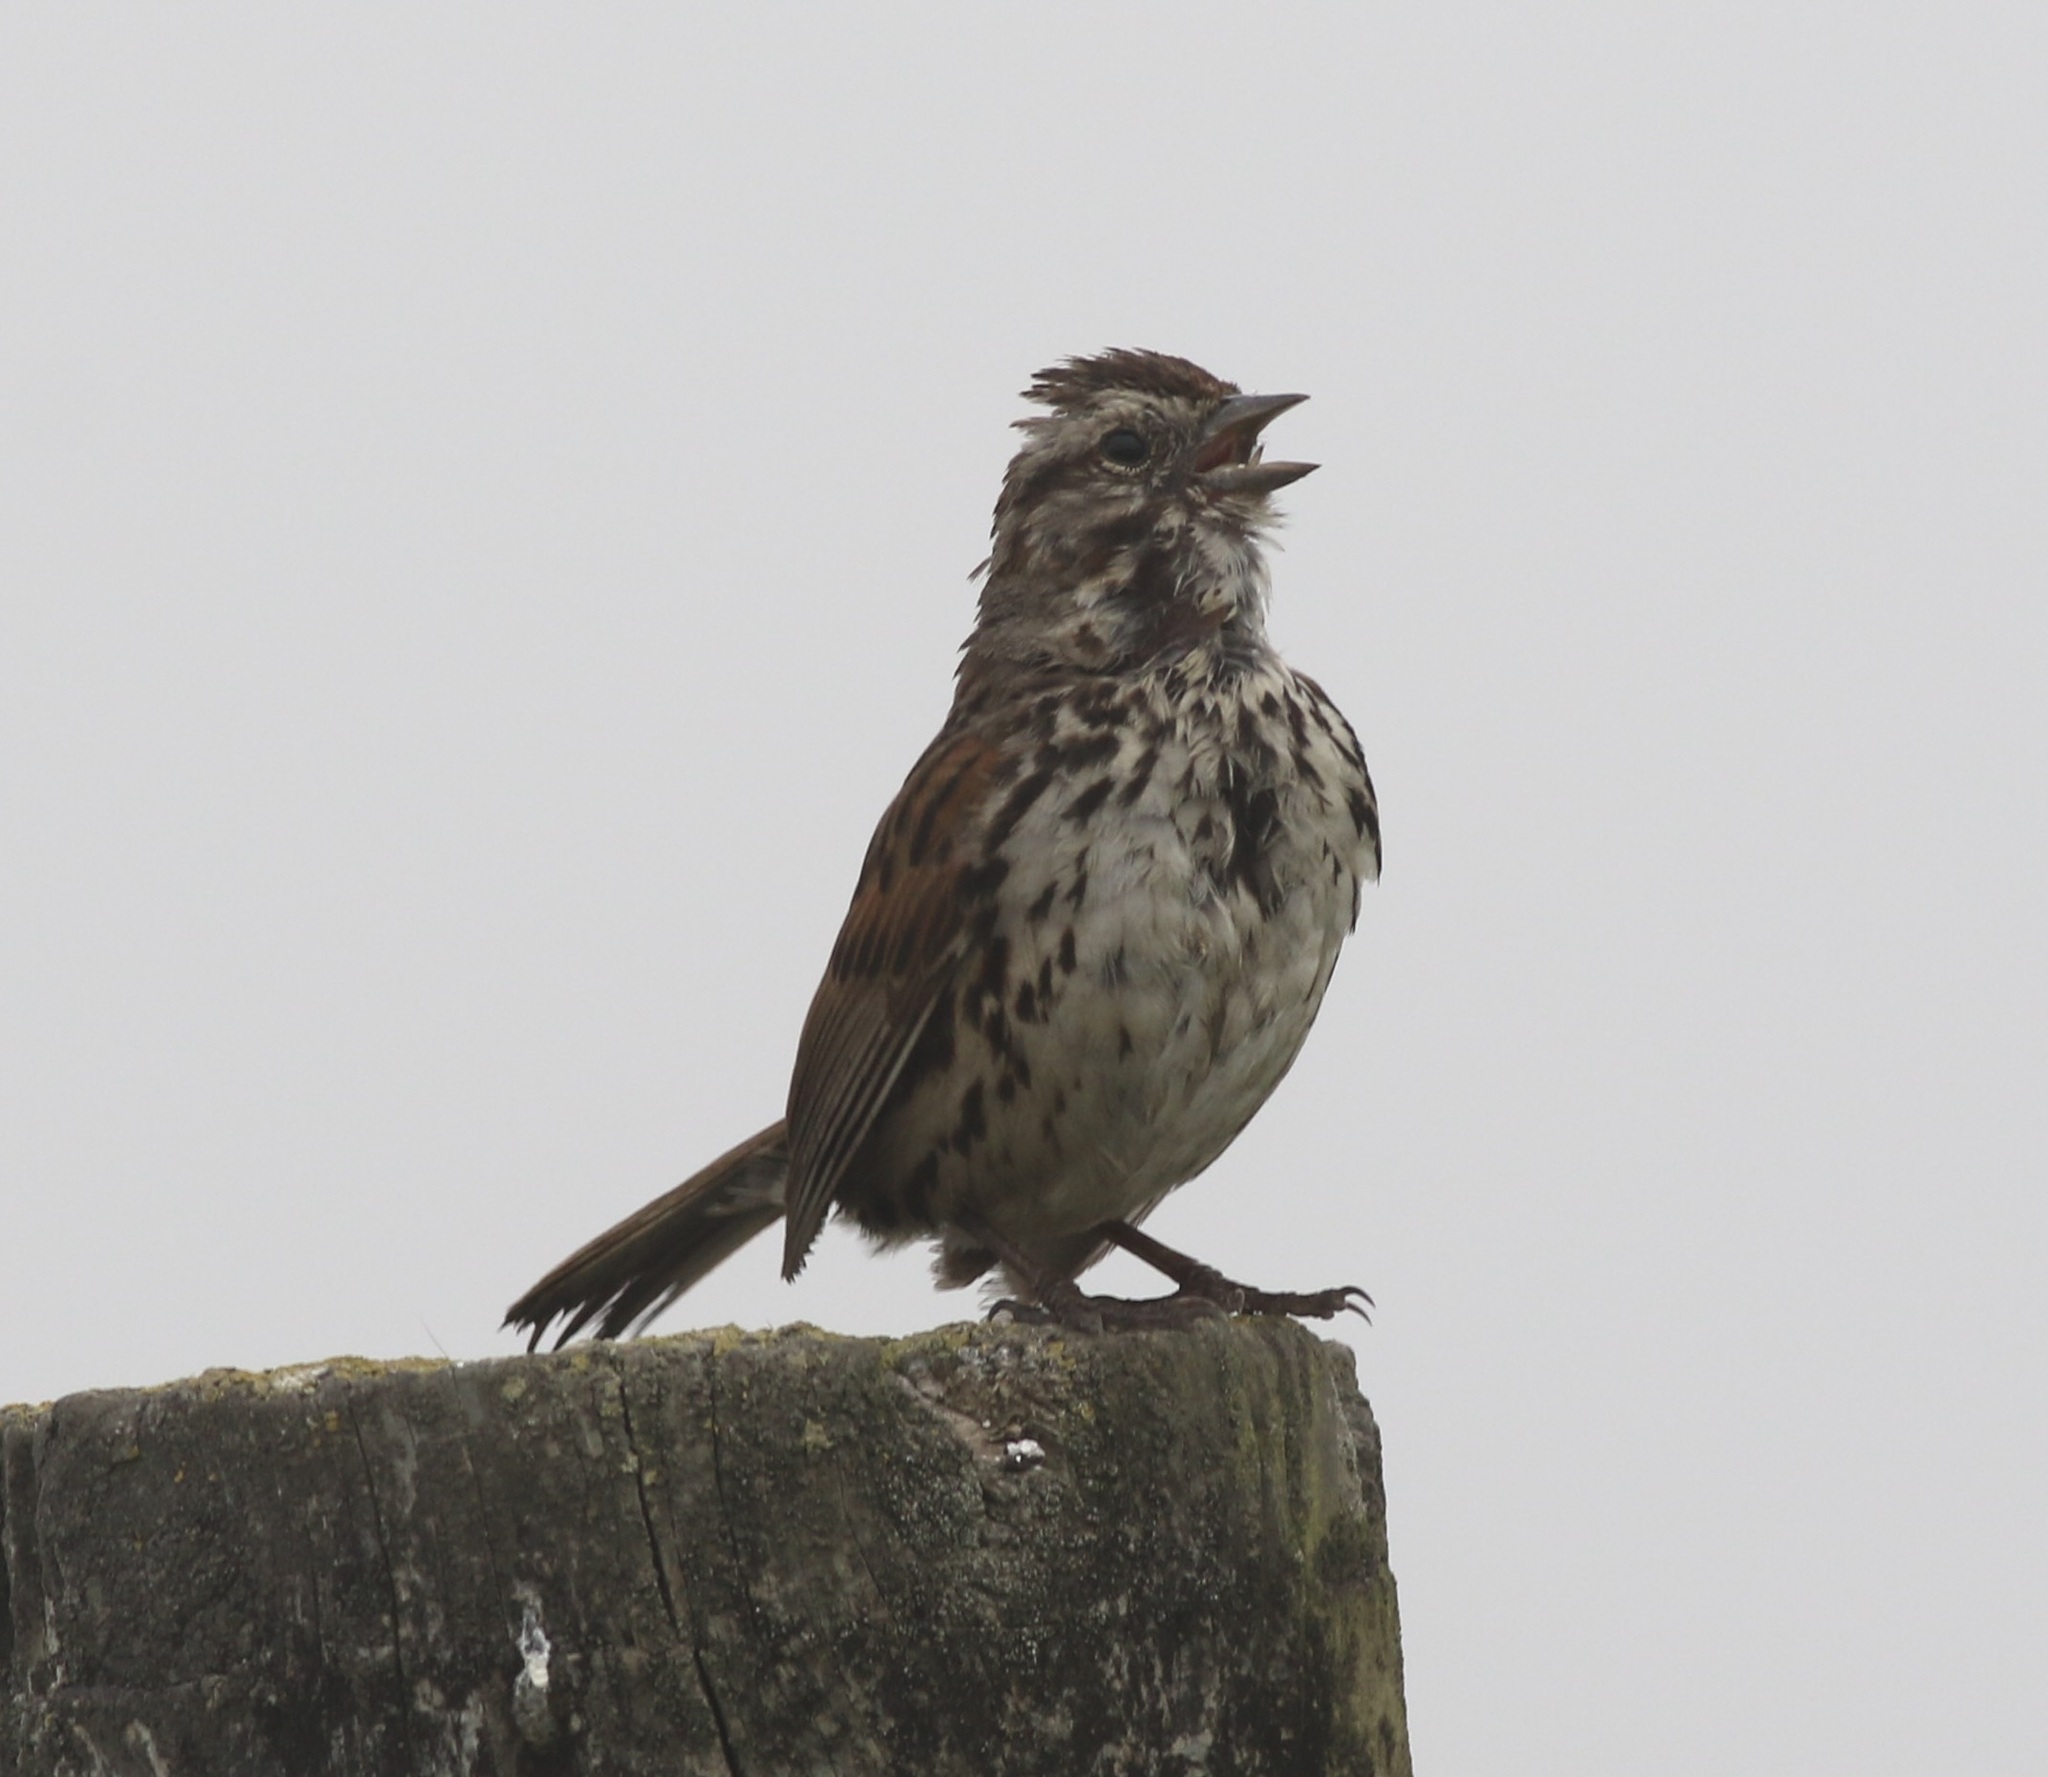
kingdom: Animalia
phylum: Chordata
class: Aves
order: Passeriformes
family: Passerellidae
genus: Melospiza
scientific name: Melospiza melodia
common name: Song sparrow
